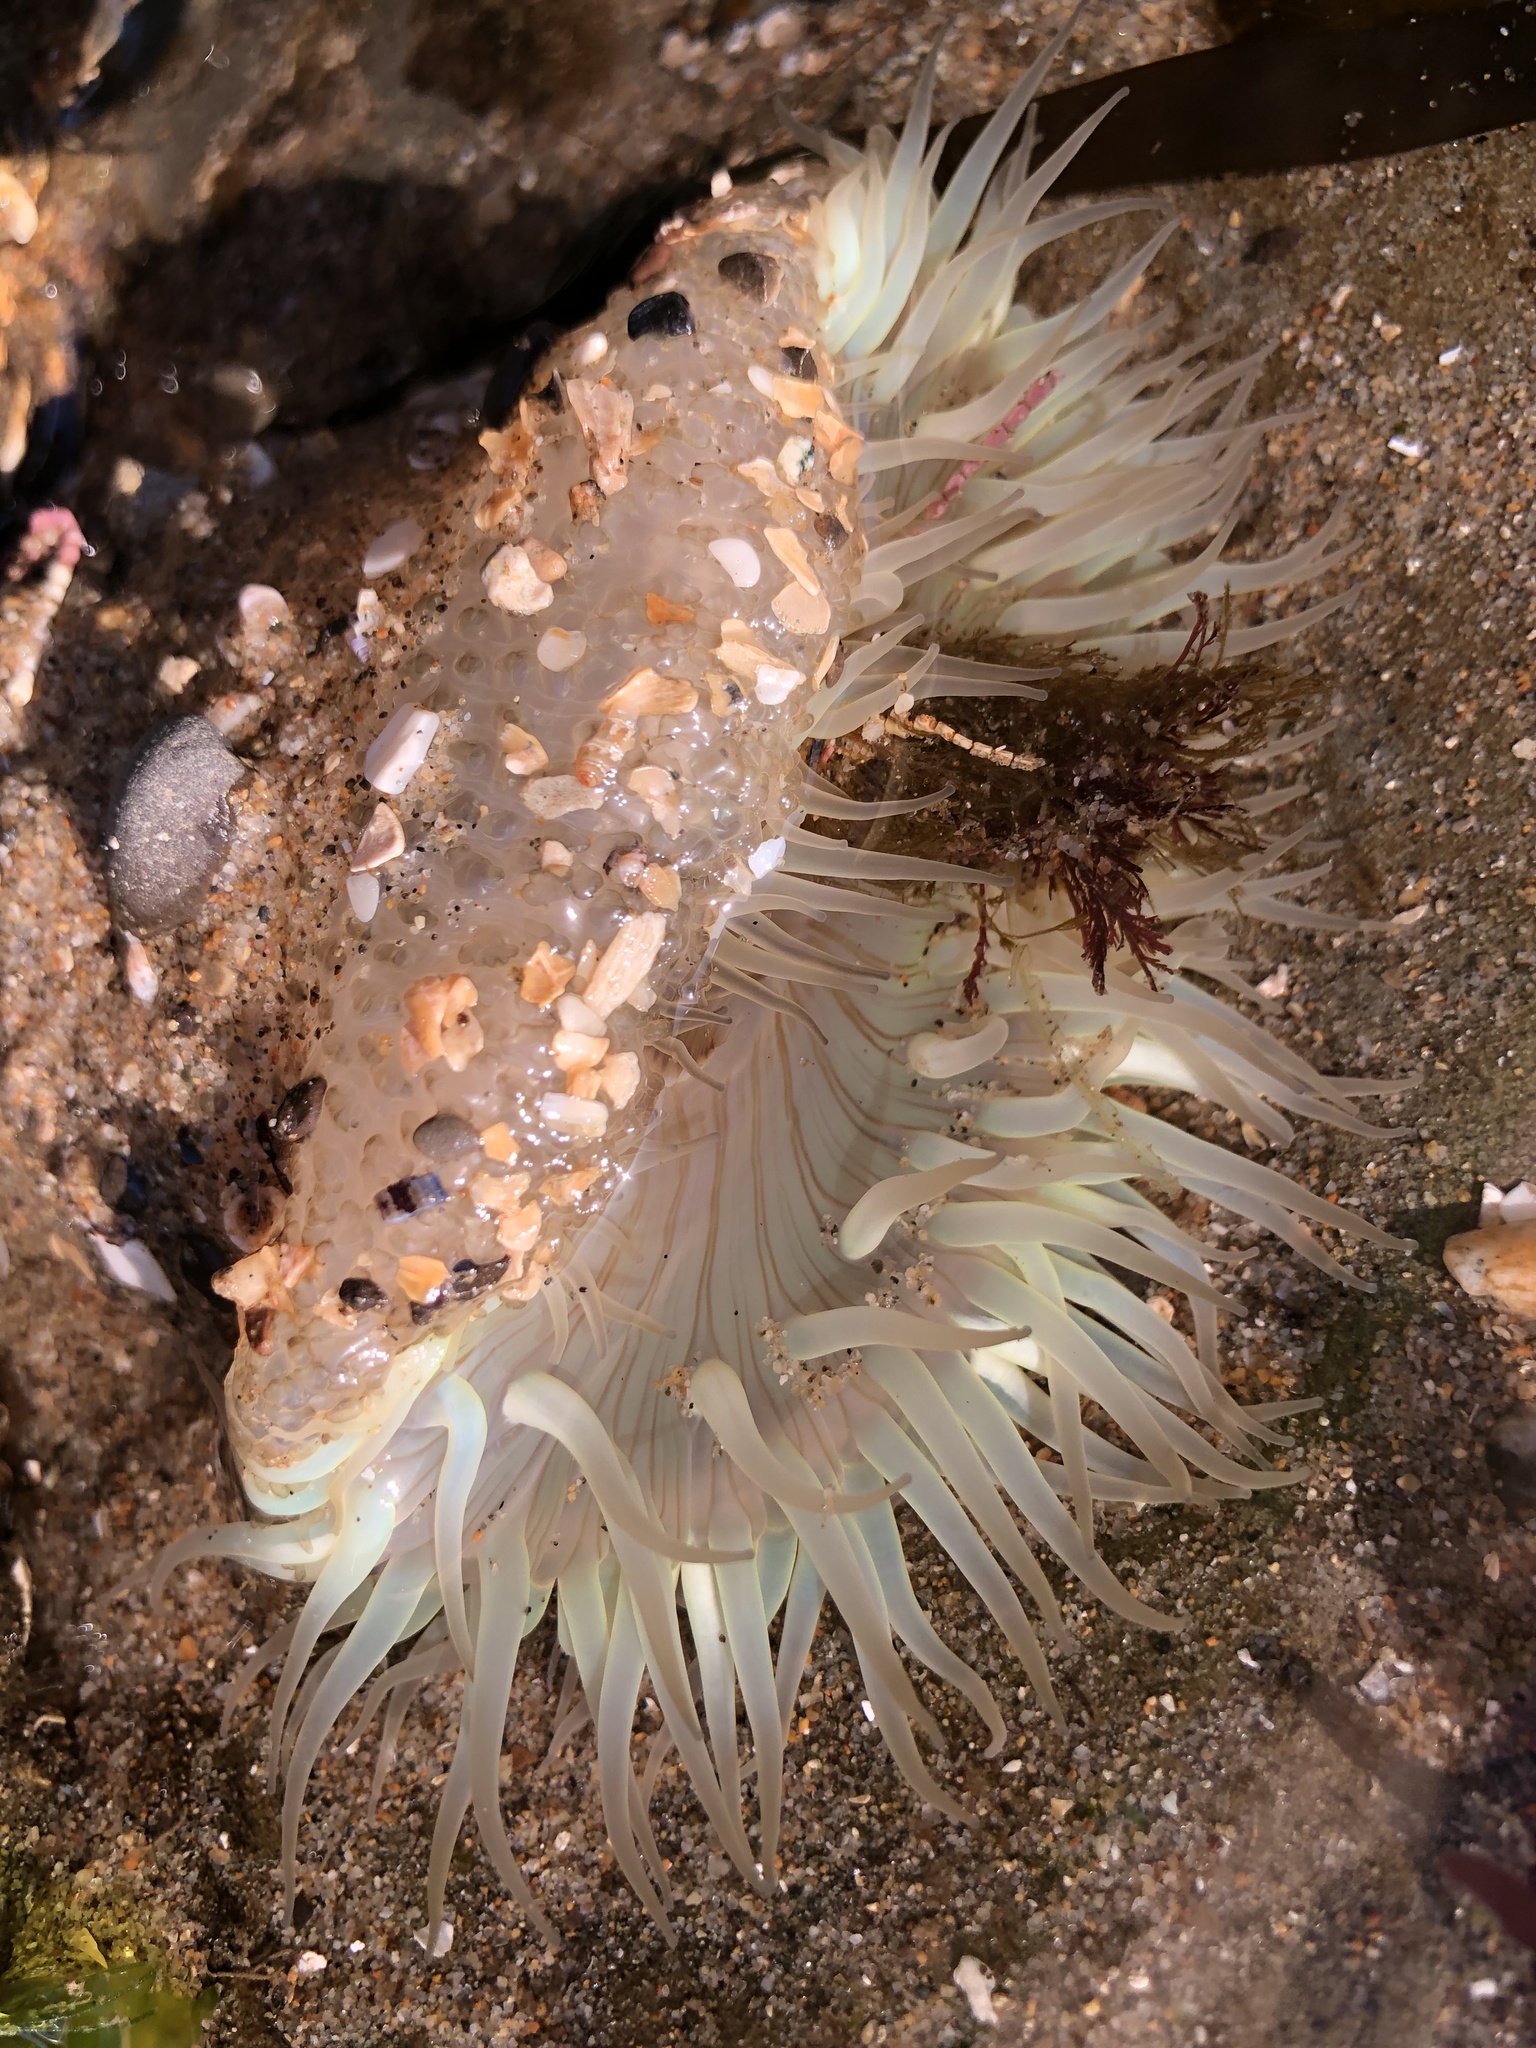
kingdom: Animalia
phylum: Cnidaria
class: Anthozoa
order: Actiniaria
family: Actiniidae
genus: Anthopleura
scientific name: Anthopleura sola
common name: Sun anemone
